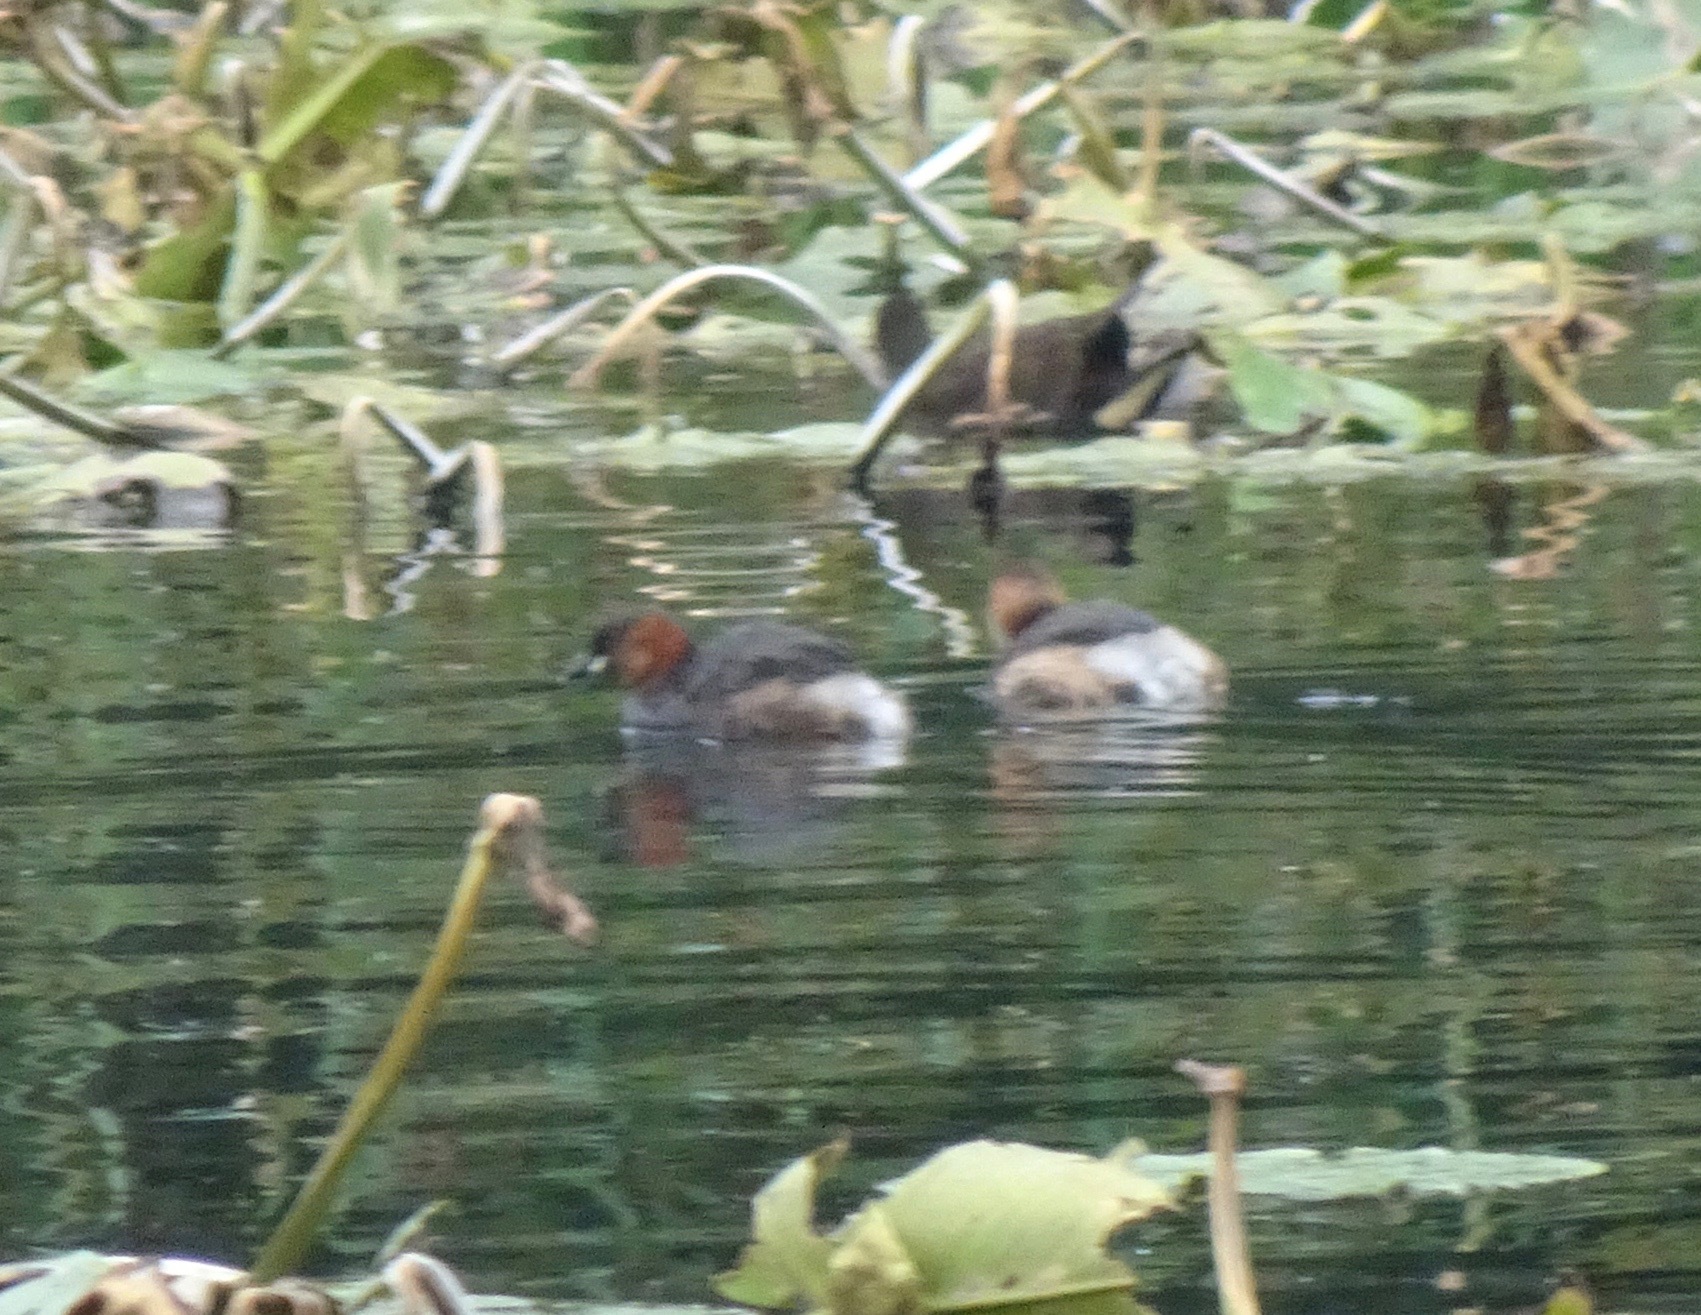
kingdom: Animalia
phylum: Chordata
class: Aves
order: Podicipediformes
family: Podicipedidae
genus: Tachybaptus
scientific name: Tachybaptus ruficollis
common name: Little grebe
